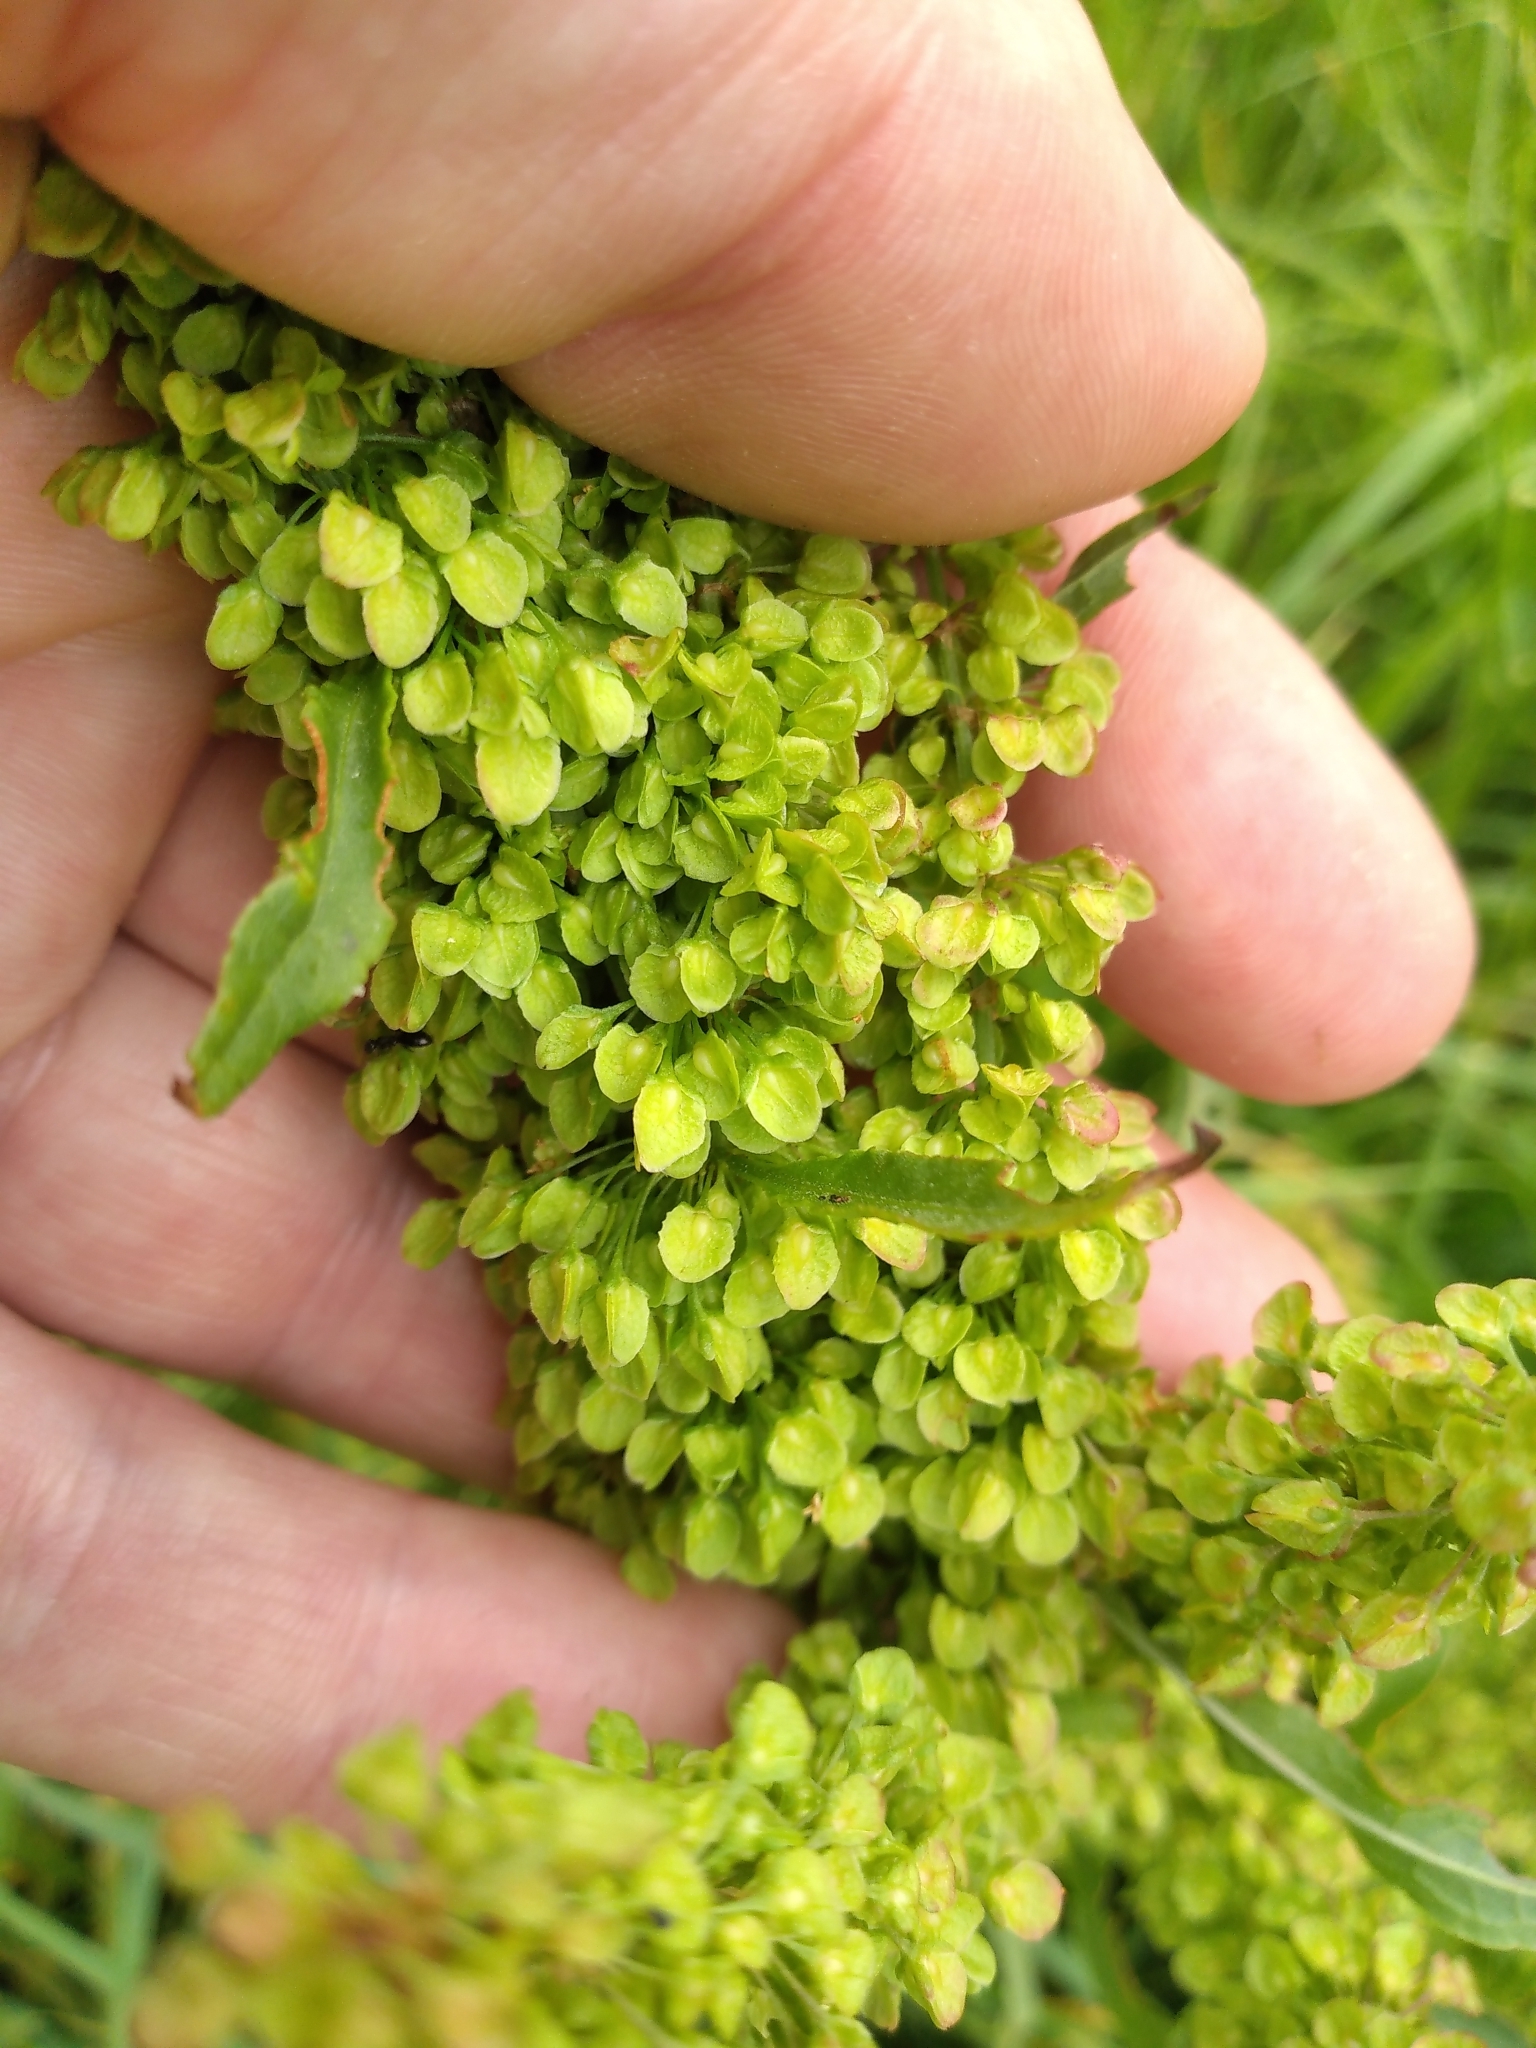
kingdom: Plantae
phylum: Tracheophyta
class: Magnoliopsida
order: Caryophyllales
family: Polygonaceae
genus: Rumex
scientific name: Rumex crispus
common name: Curled dock
